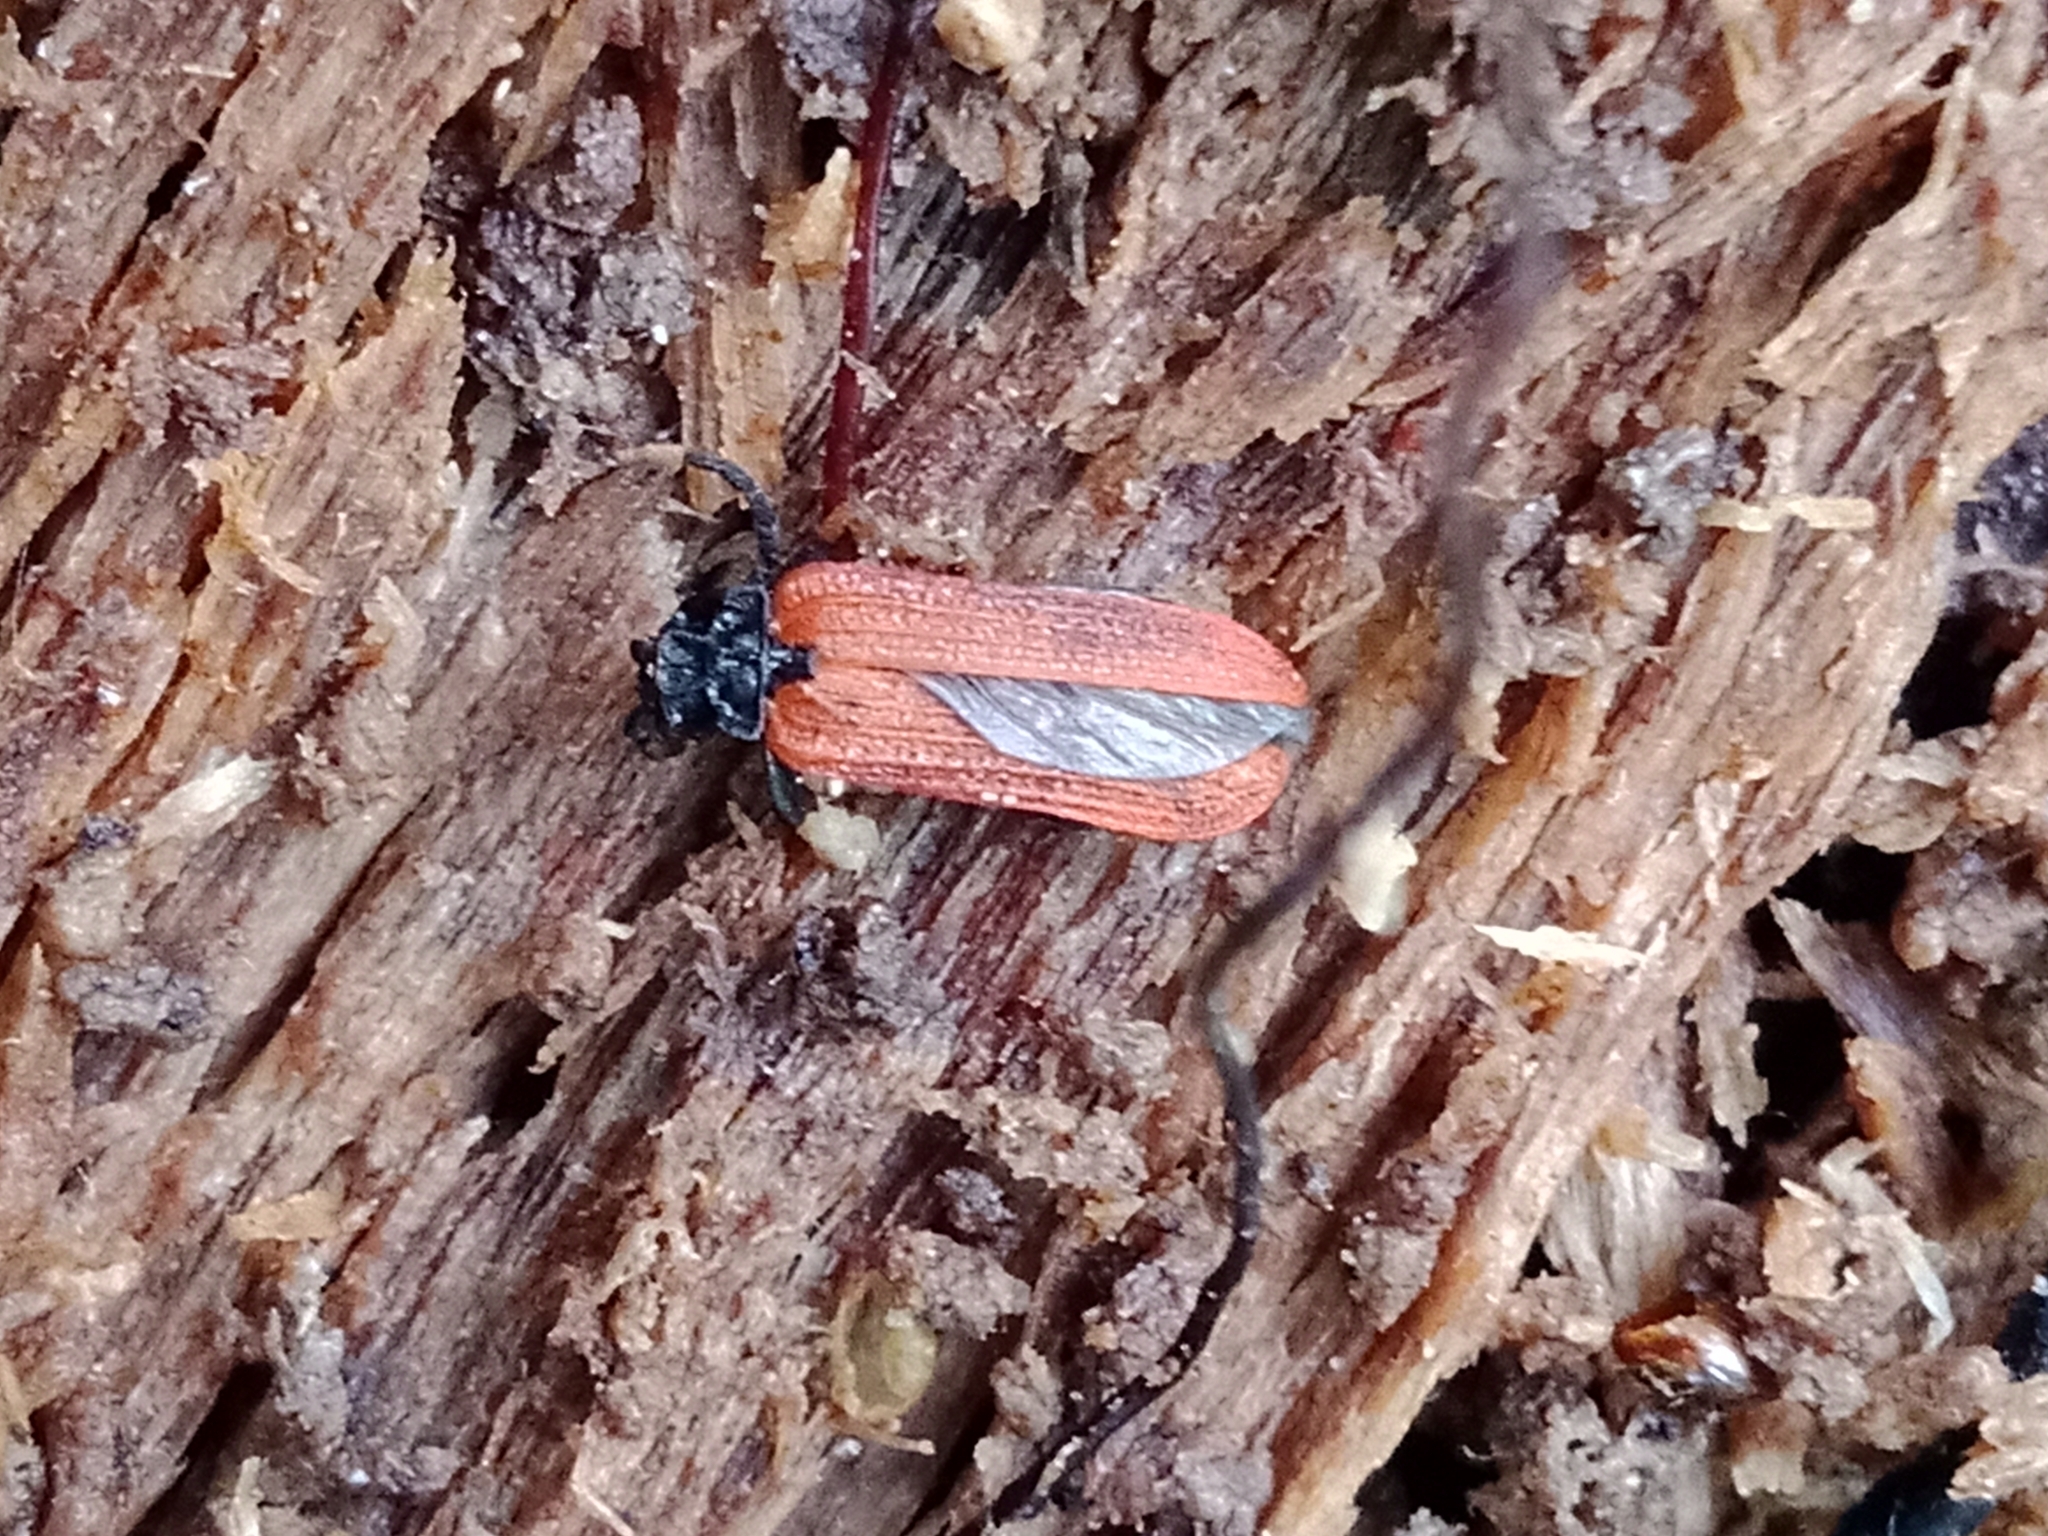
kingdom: Animalia
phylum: Arthropoda
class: Insecta
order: Coleoptera
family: Lycidae
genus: Platycis
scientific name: Platycis minutus
